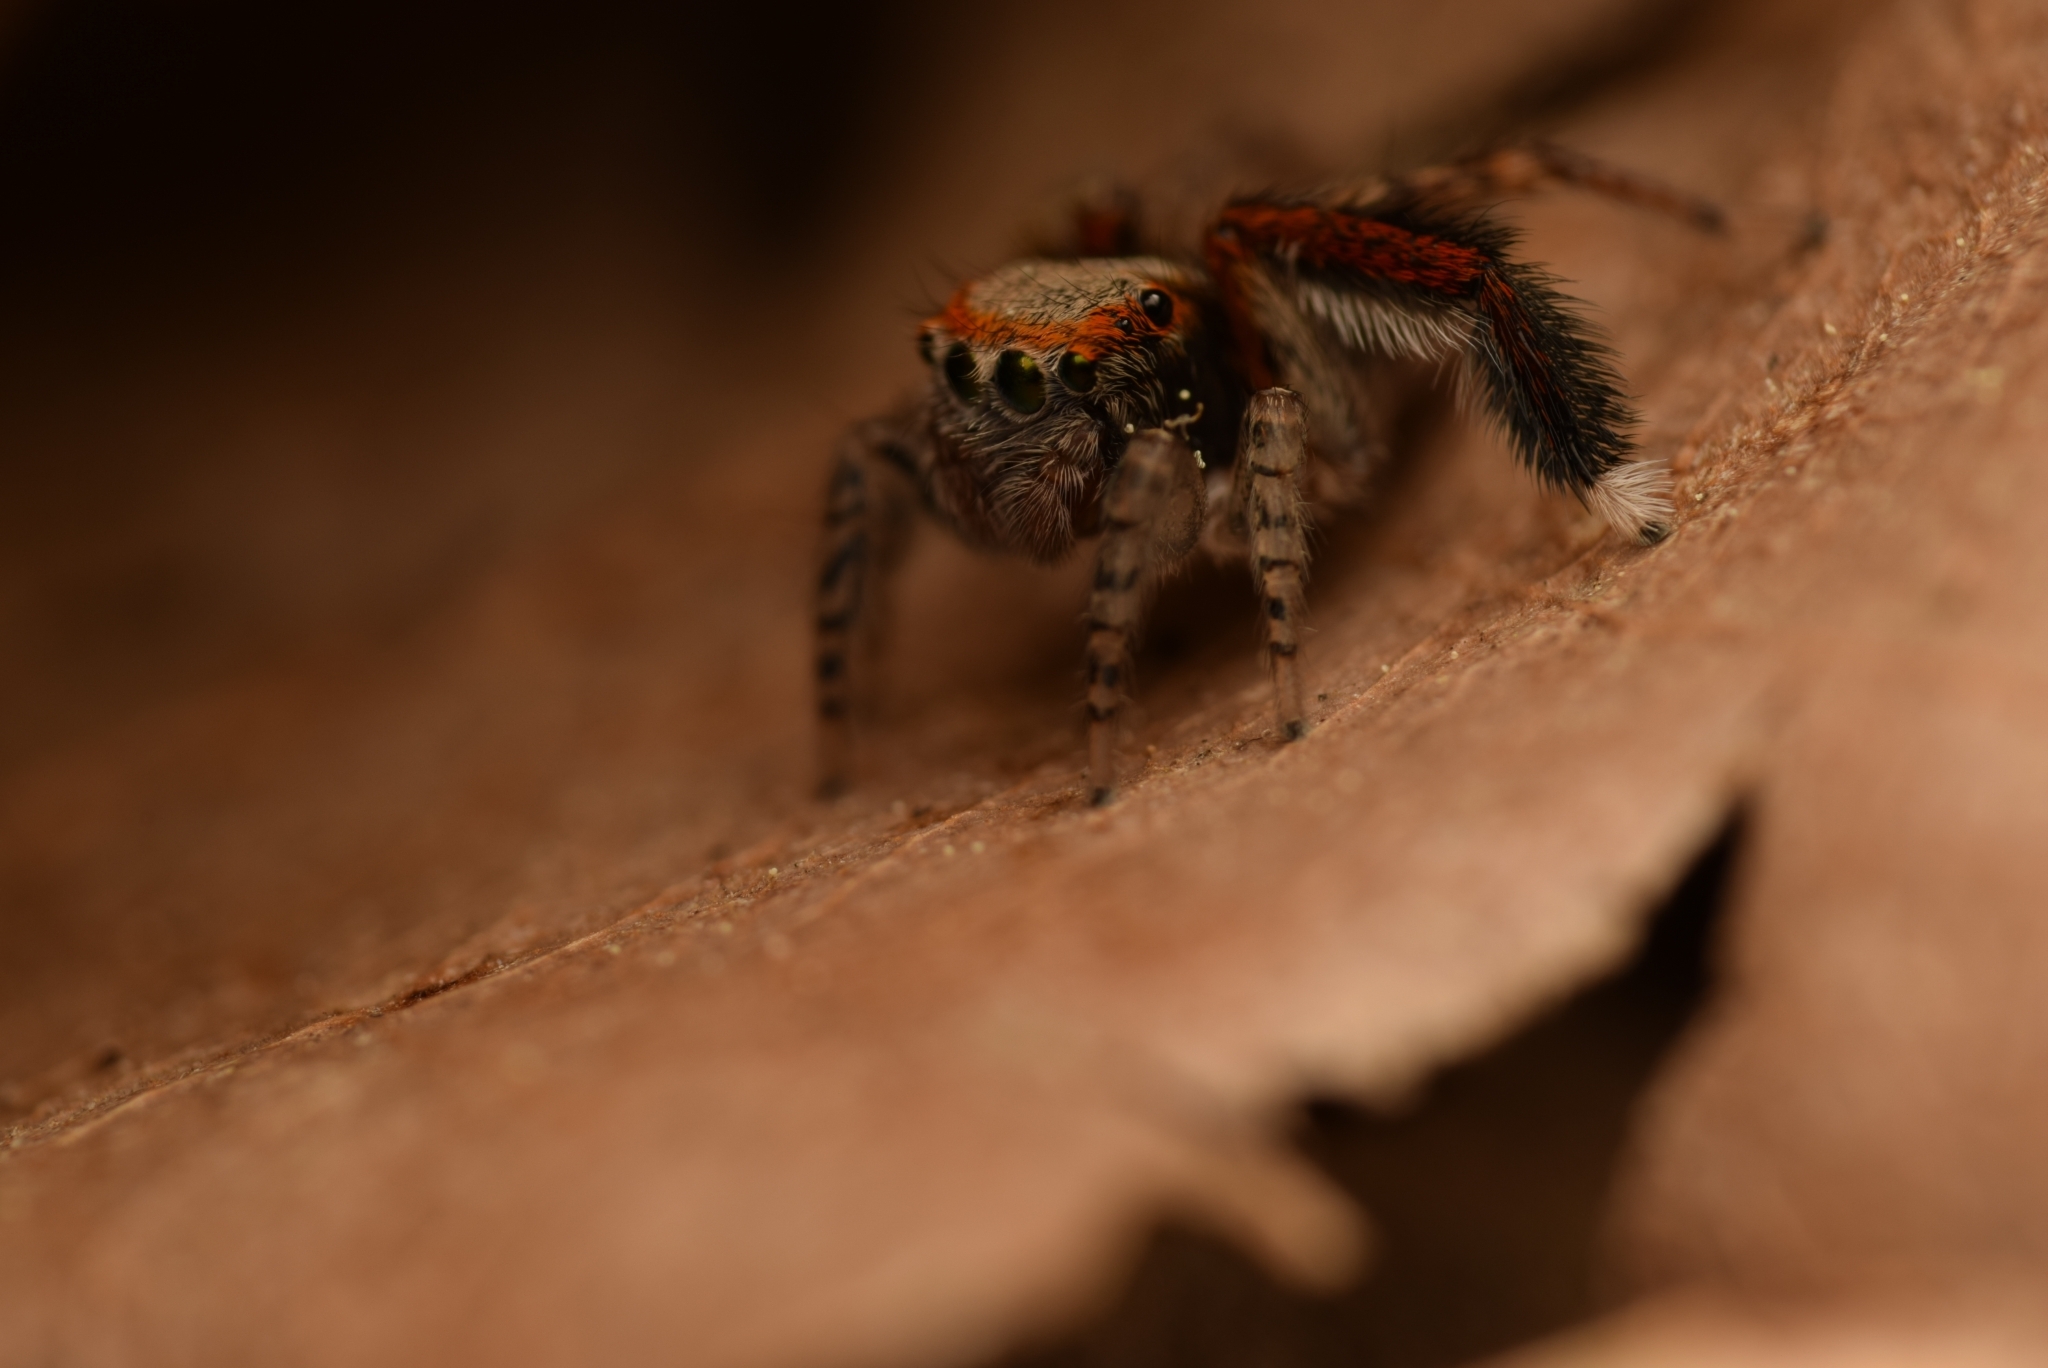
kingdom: Animalia
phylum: Arthropoda
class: Arachnida
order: Araneae
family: Salticidae
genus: Saitis
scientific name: Saitis barbipes
